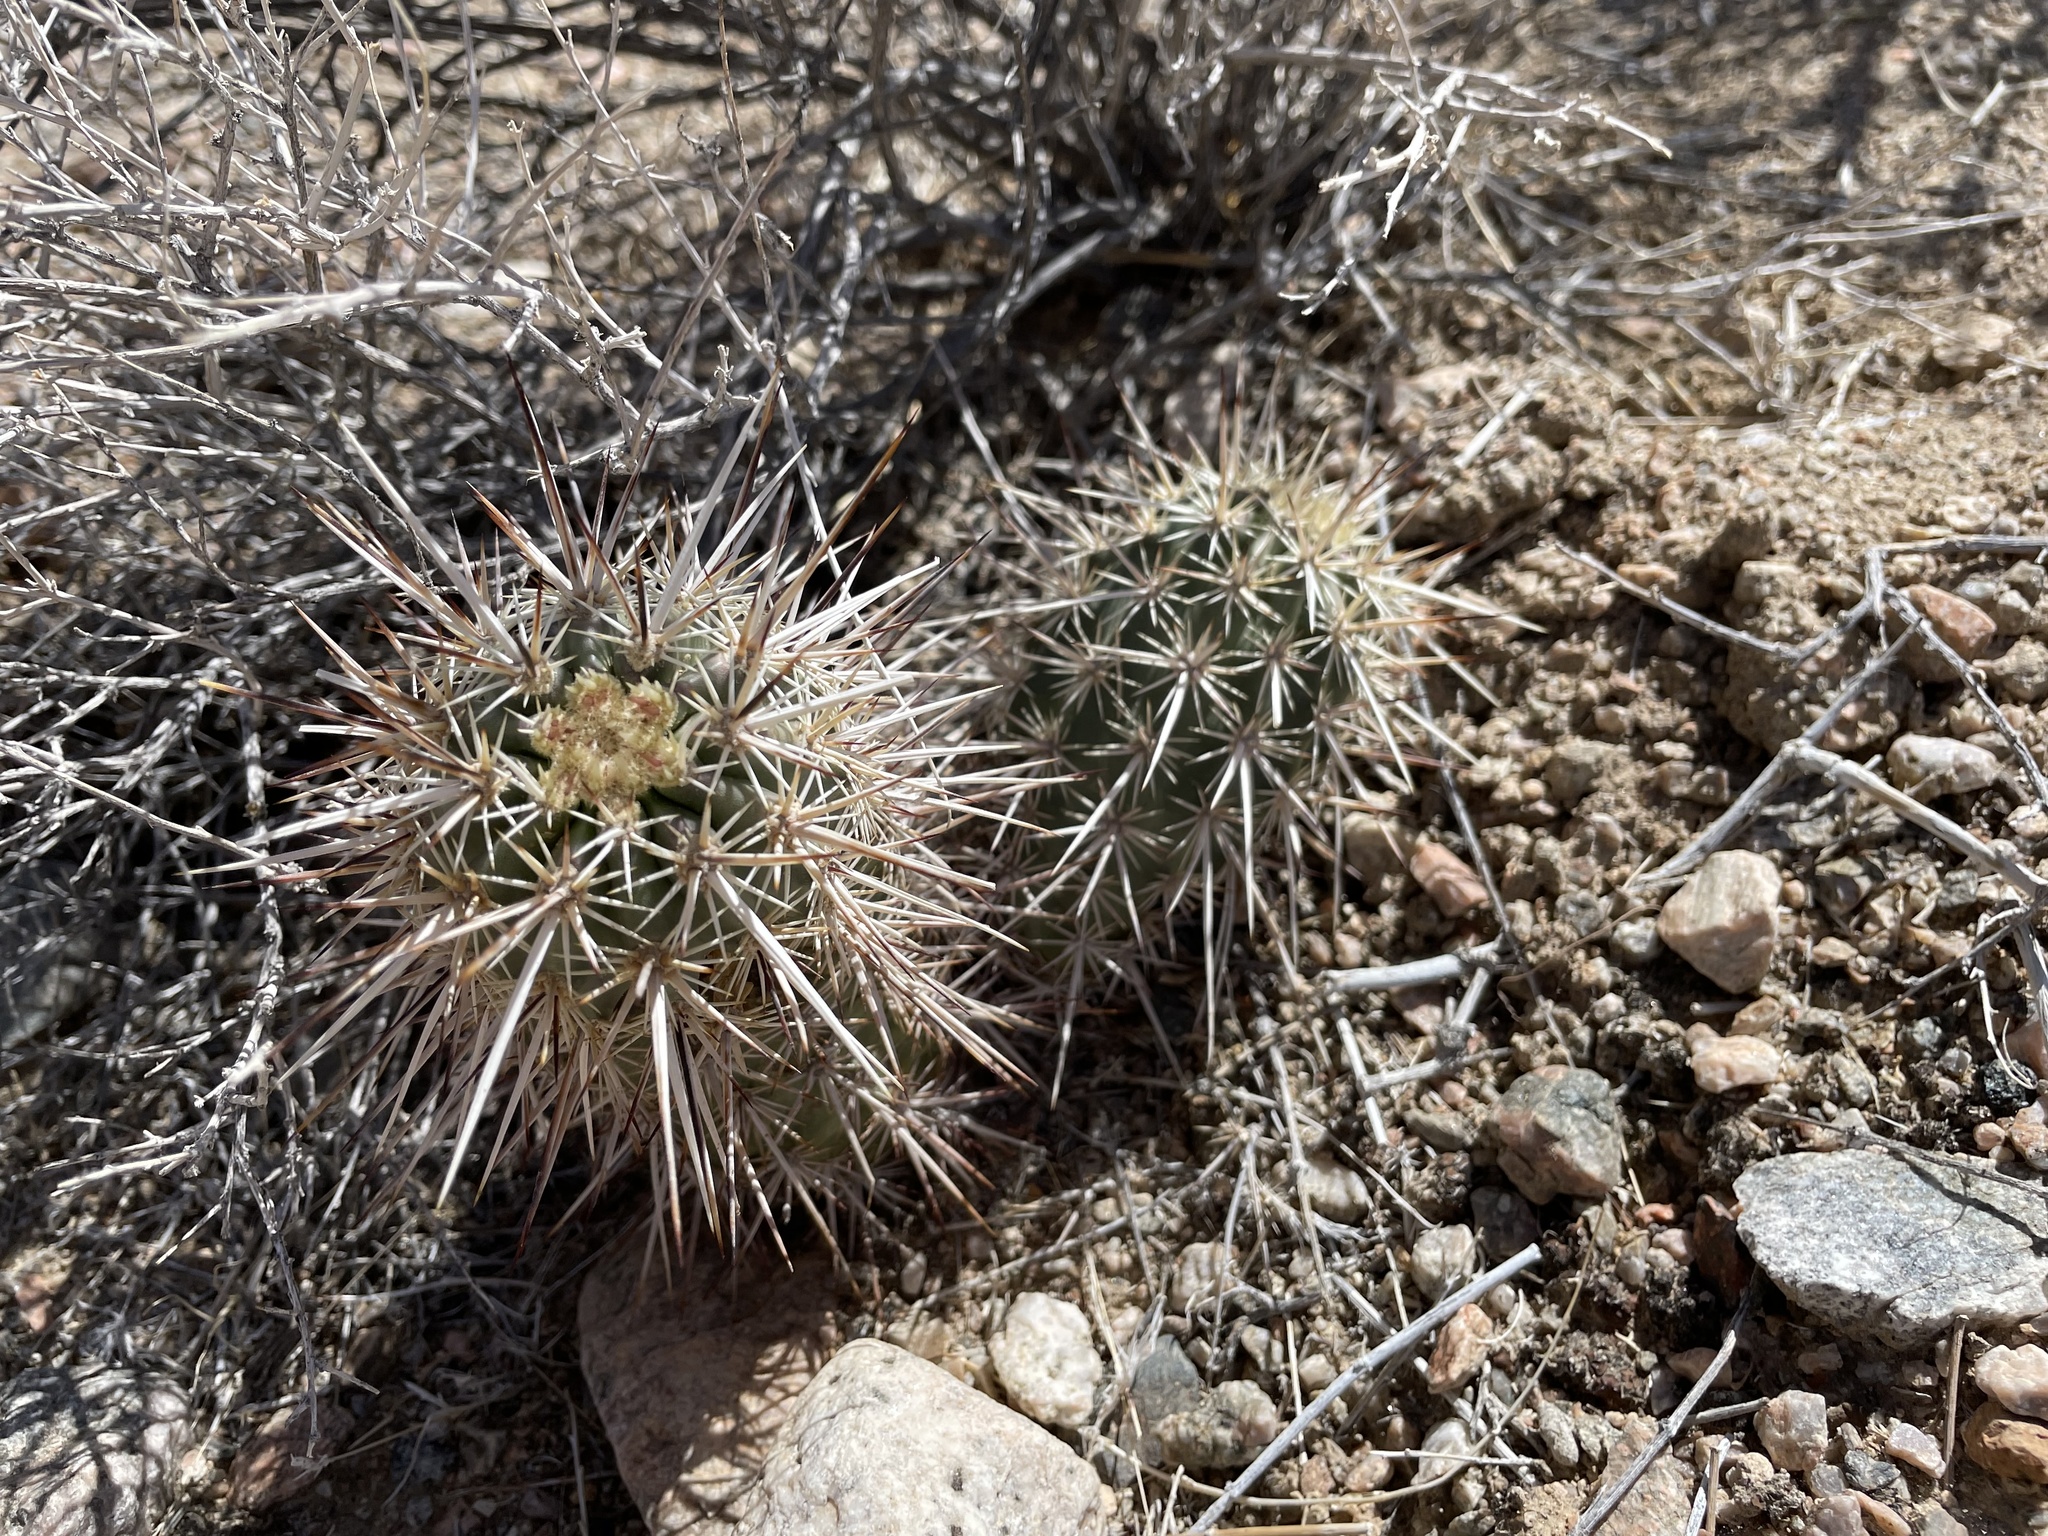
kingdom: Plantae
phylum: Tracheophyta
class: Magnoliopsida
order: Caryophyllales
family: Cactaceae
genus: Echinocereus
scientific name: Echinocereus engelmannii
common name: Engelmann's hedgehog cactus
